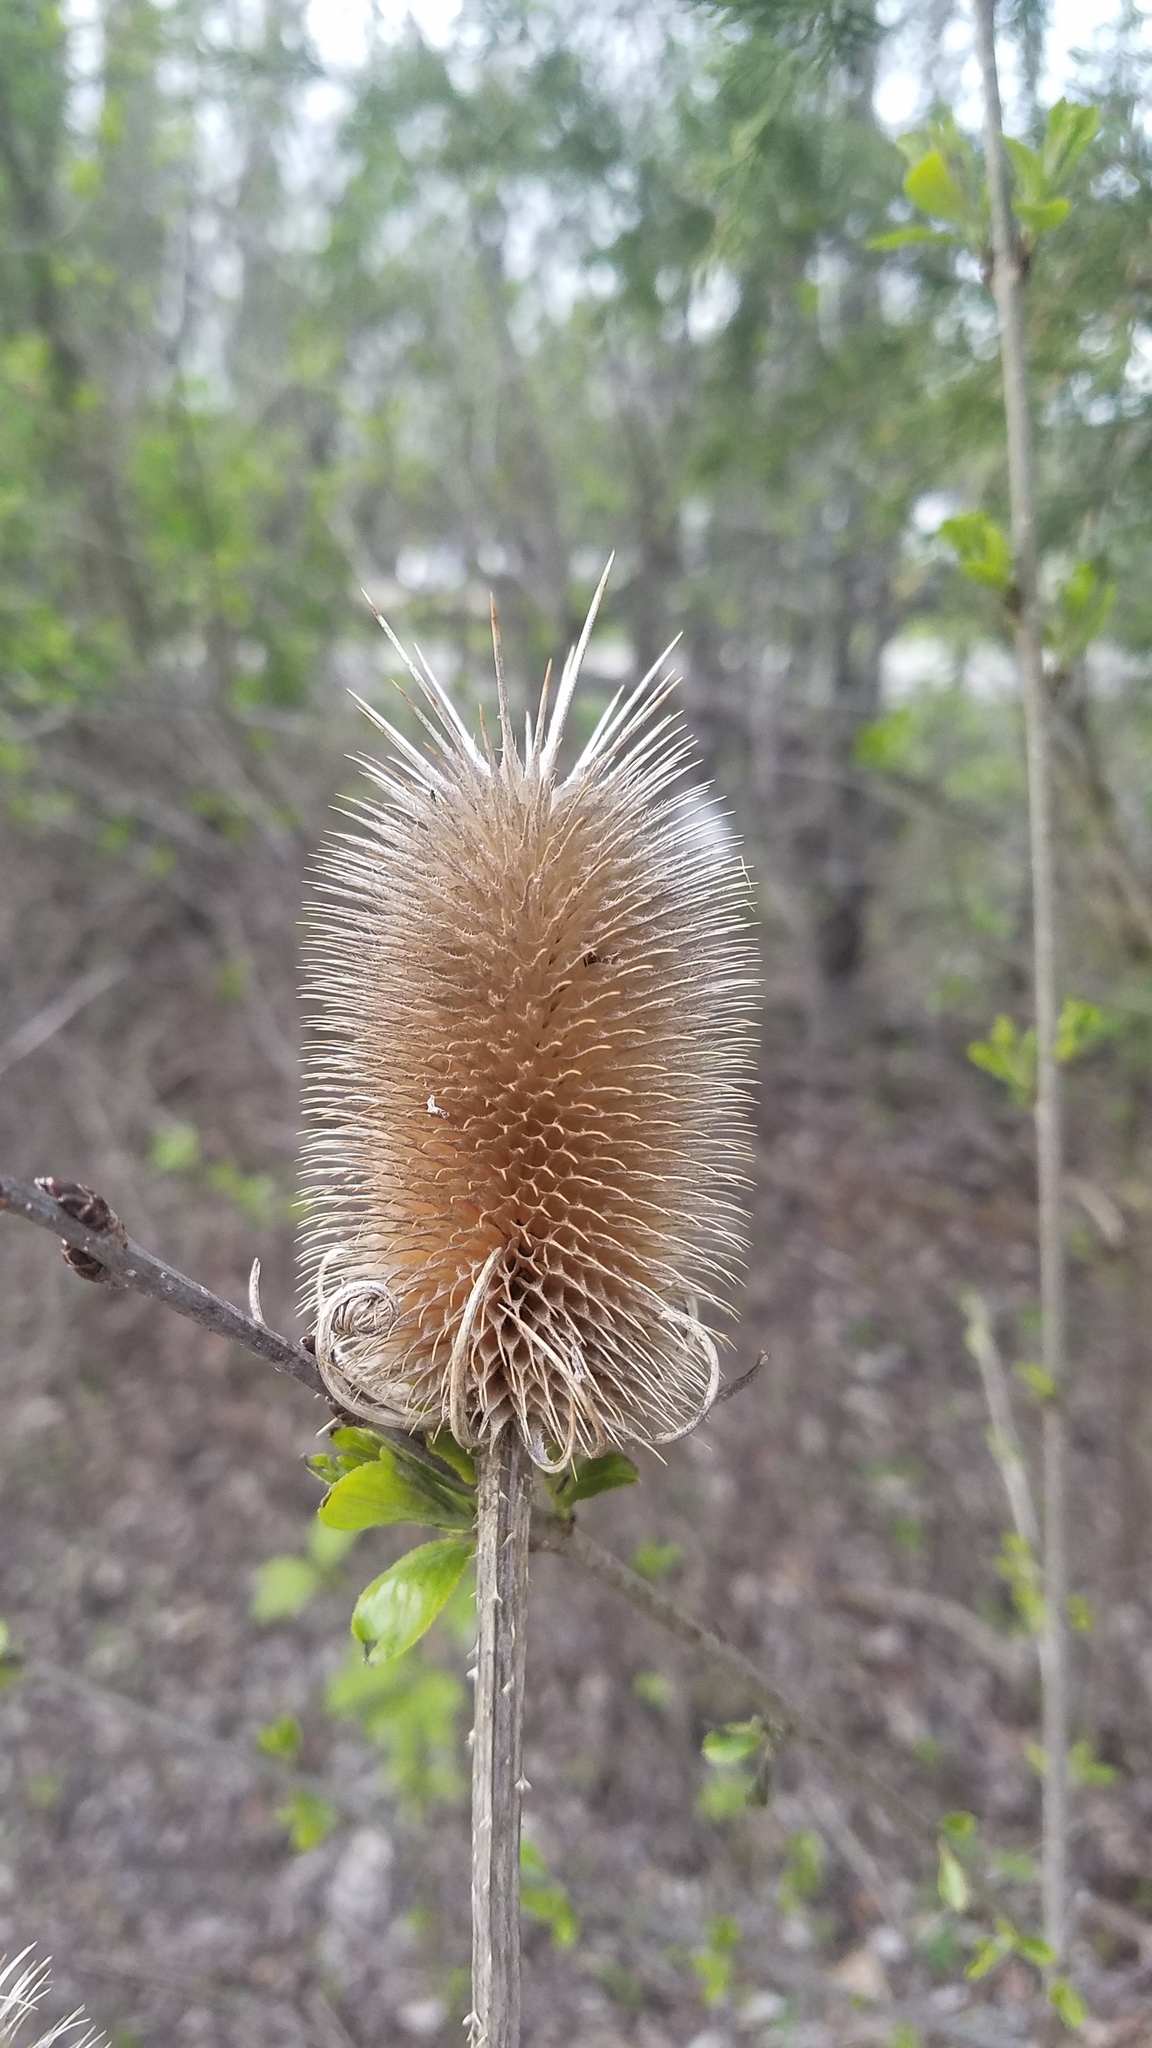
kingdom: Plantae
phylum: Tracheophyta
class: Magnoliopsida
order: Dipsacales
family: Caprifoliaceae
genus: Dipsacus
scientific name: Dipsacus fullonum
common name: Teasel
